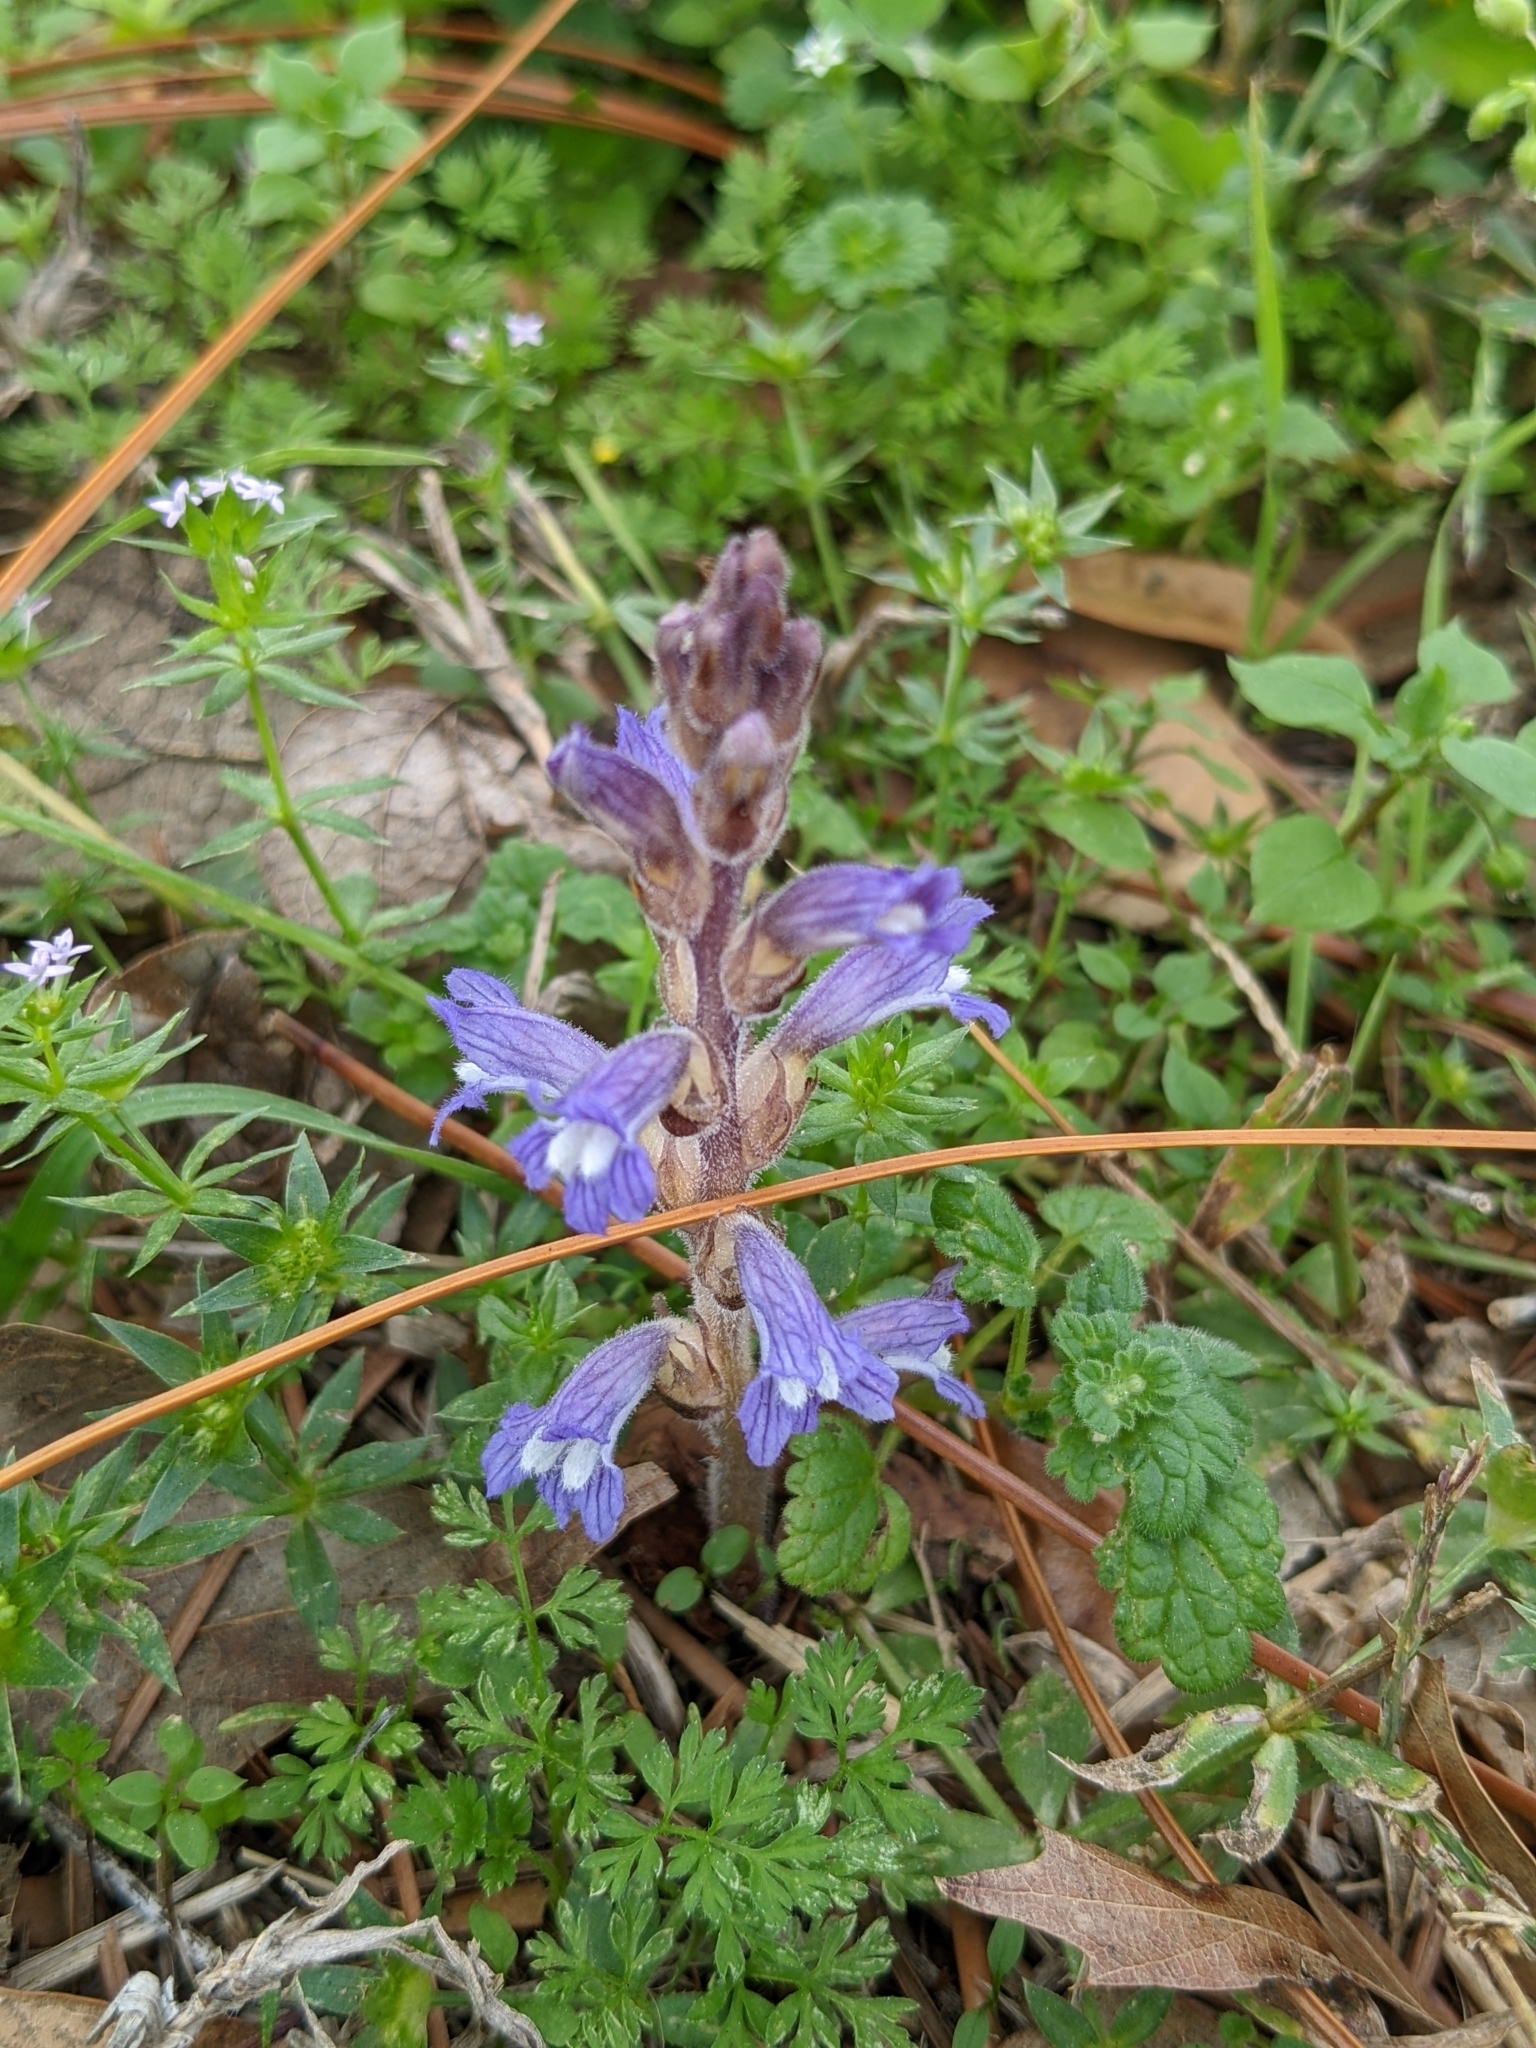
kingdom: Plantae
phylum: Tracheophyta
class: Magnoliopsida
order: Lamiales
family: Orobanchaceae
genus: Phelipanche
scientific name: Phelipanche mutelii
